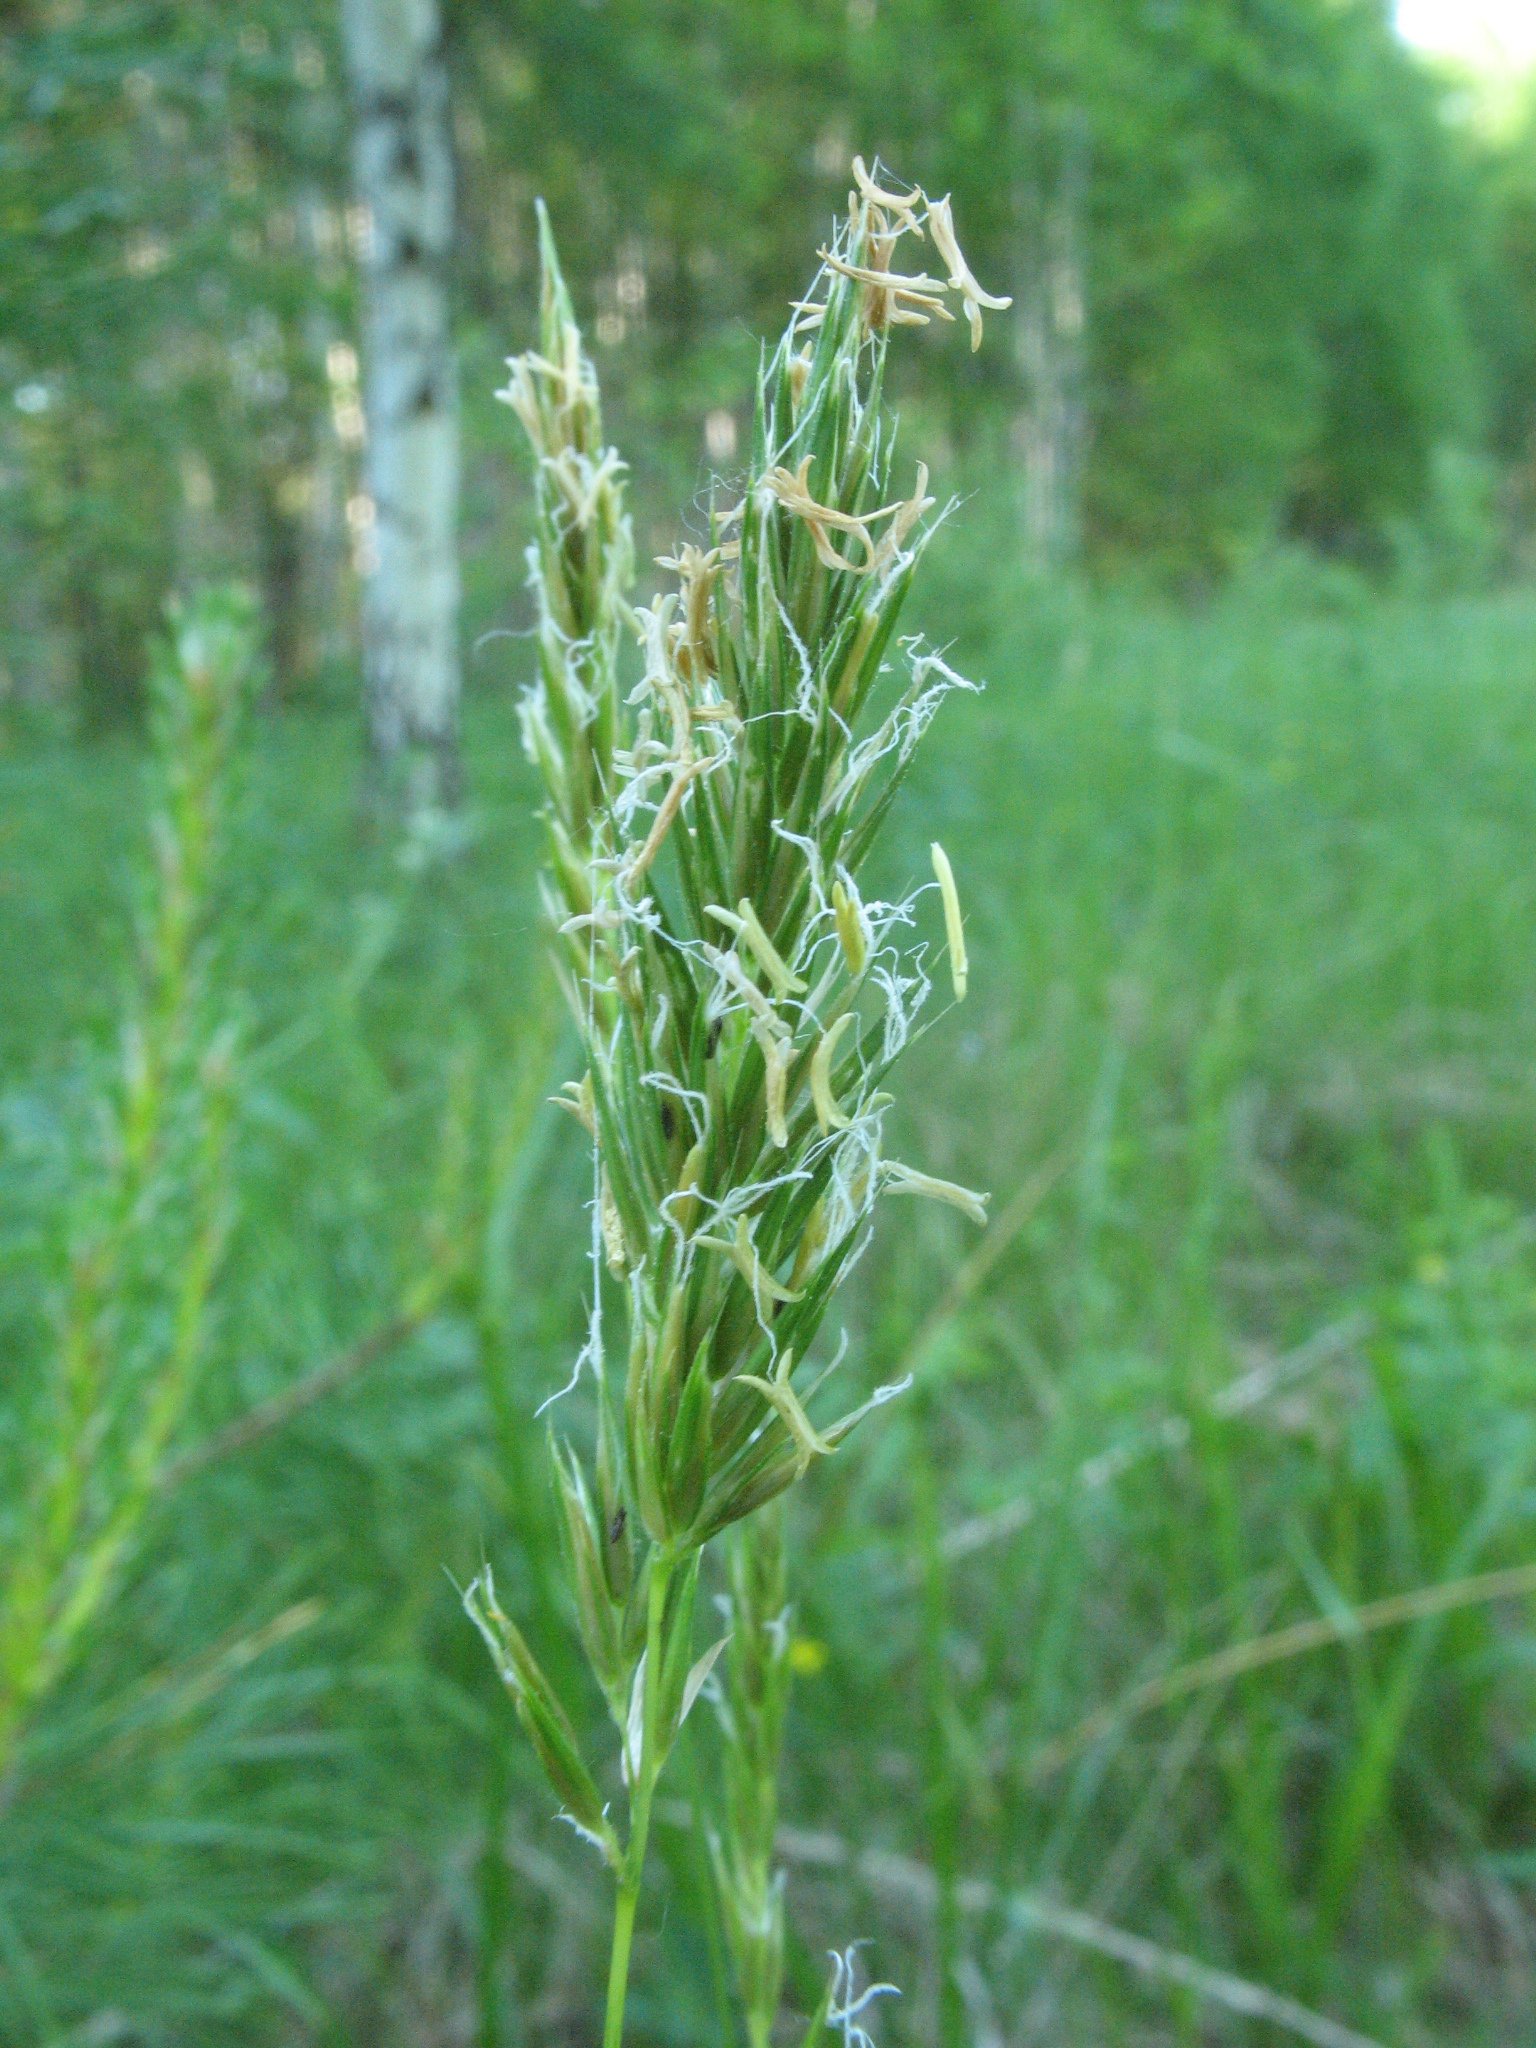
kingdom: Plantae
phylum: Tracheophyta
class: Liliopsida
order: Poales
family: Poaceae
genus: Anthoxanthum
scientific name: Anthoxanthum odoratum
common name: Sweet vernalgrass
